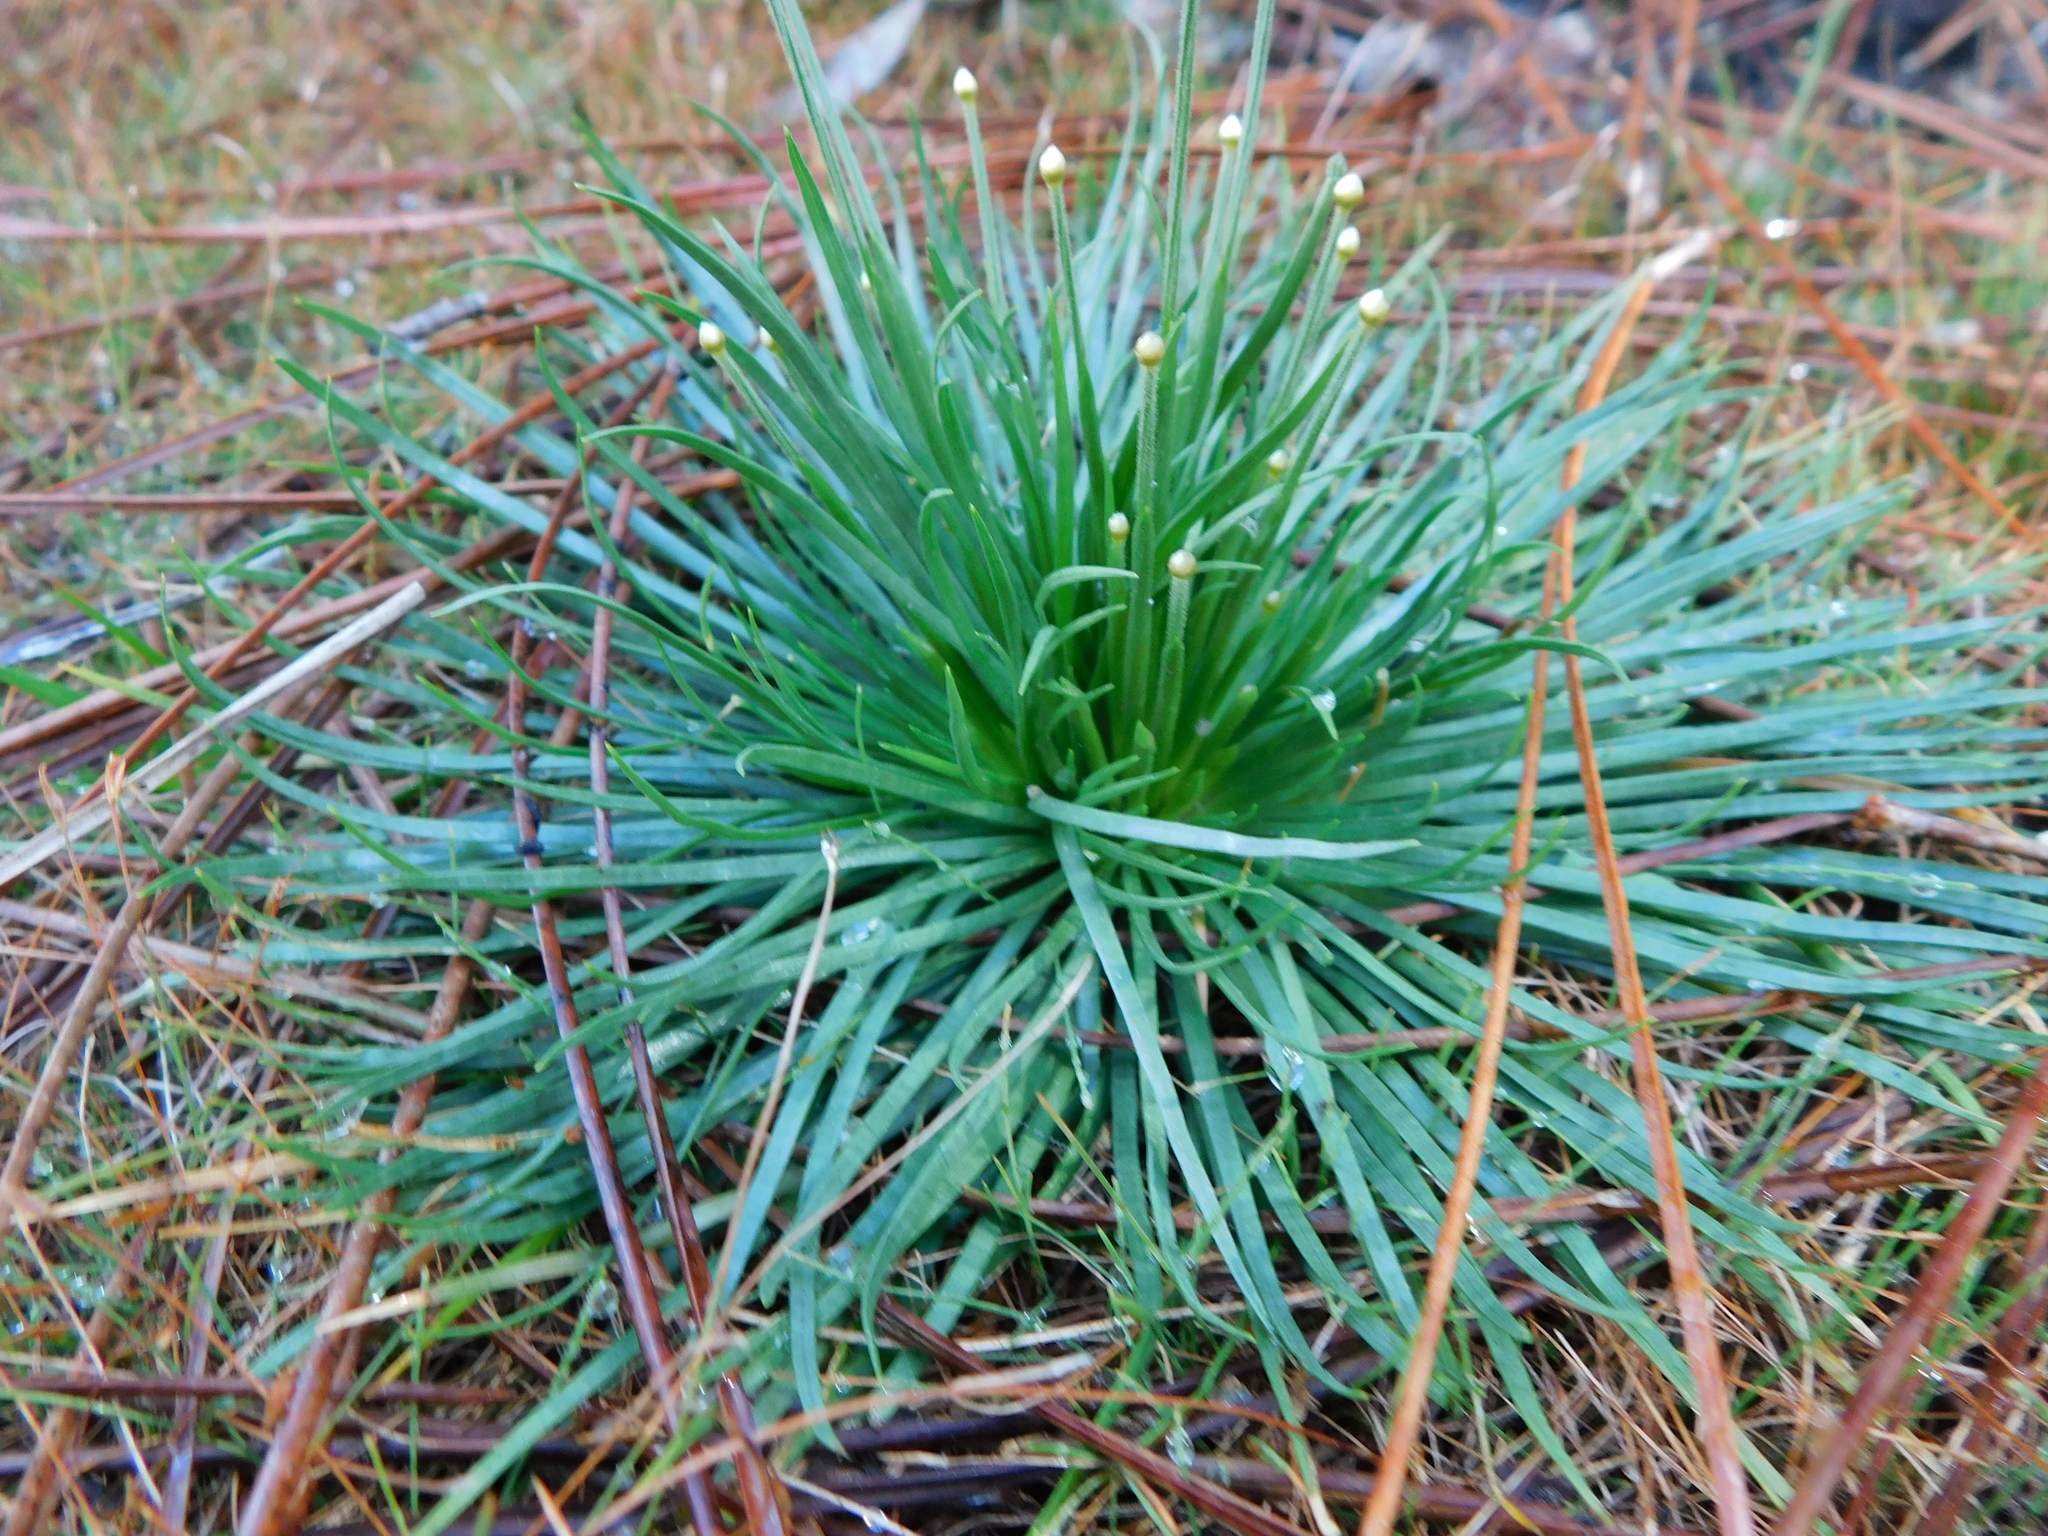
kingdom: Plantae
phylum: Tracheophyta
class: Liliopsida
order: Poales
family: Eriocaulaceae
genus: Syngonanthus
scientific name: Syngonanthus flavidulus
